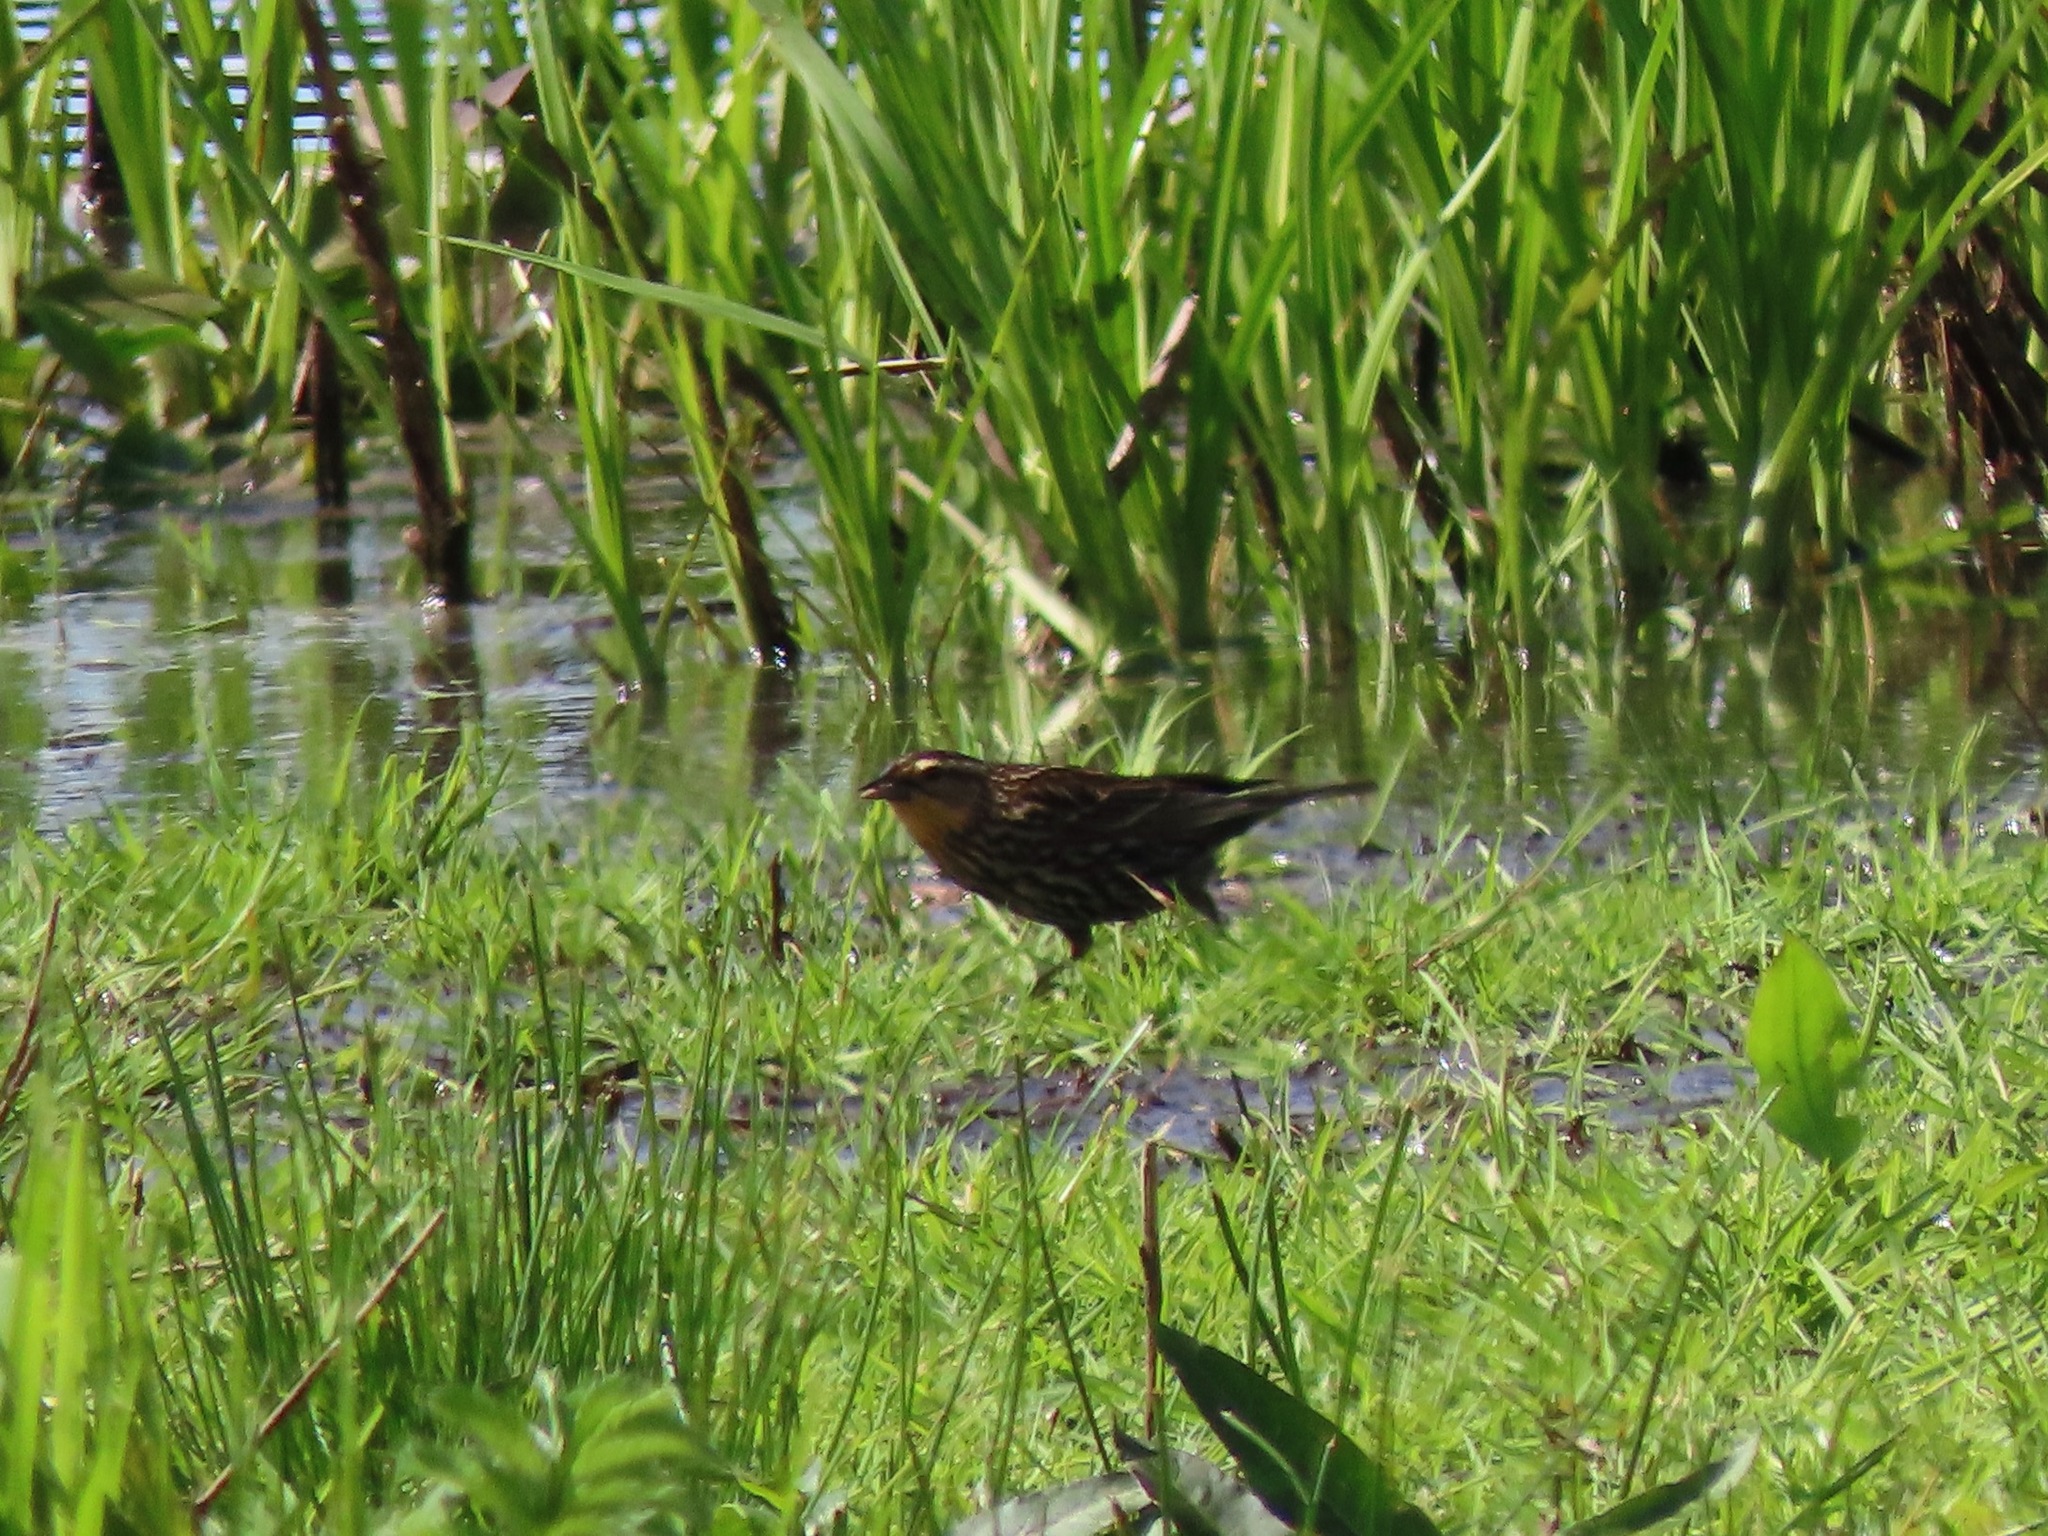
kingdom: Animalia
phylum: Chordata
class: Aves
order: Passeriformes
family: Icteridae
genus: Agelaius
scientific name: Agelaius phoeniceus
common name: Red-winged blackbird
